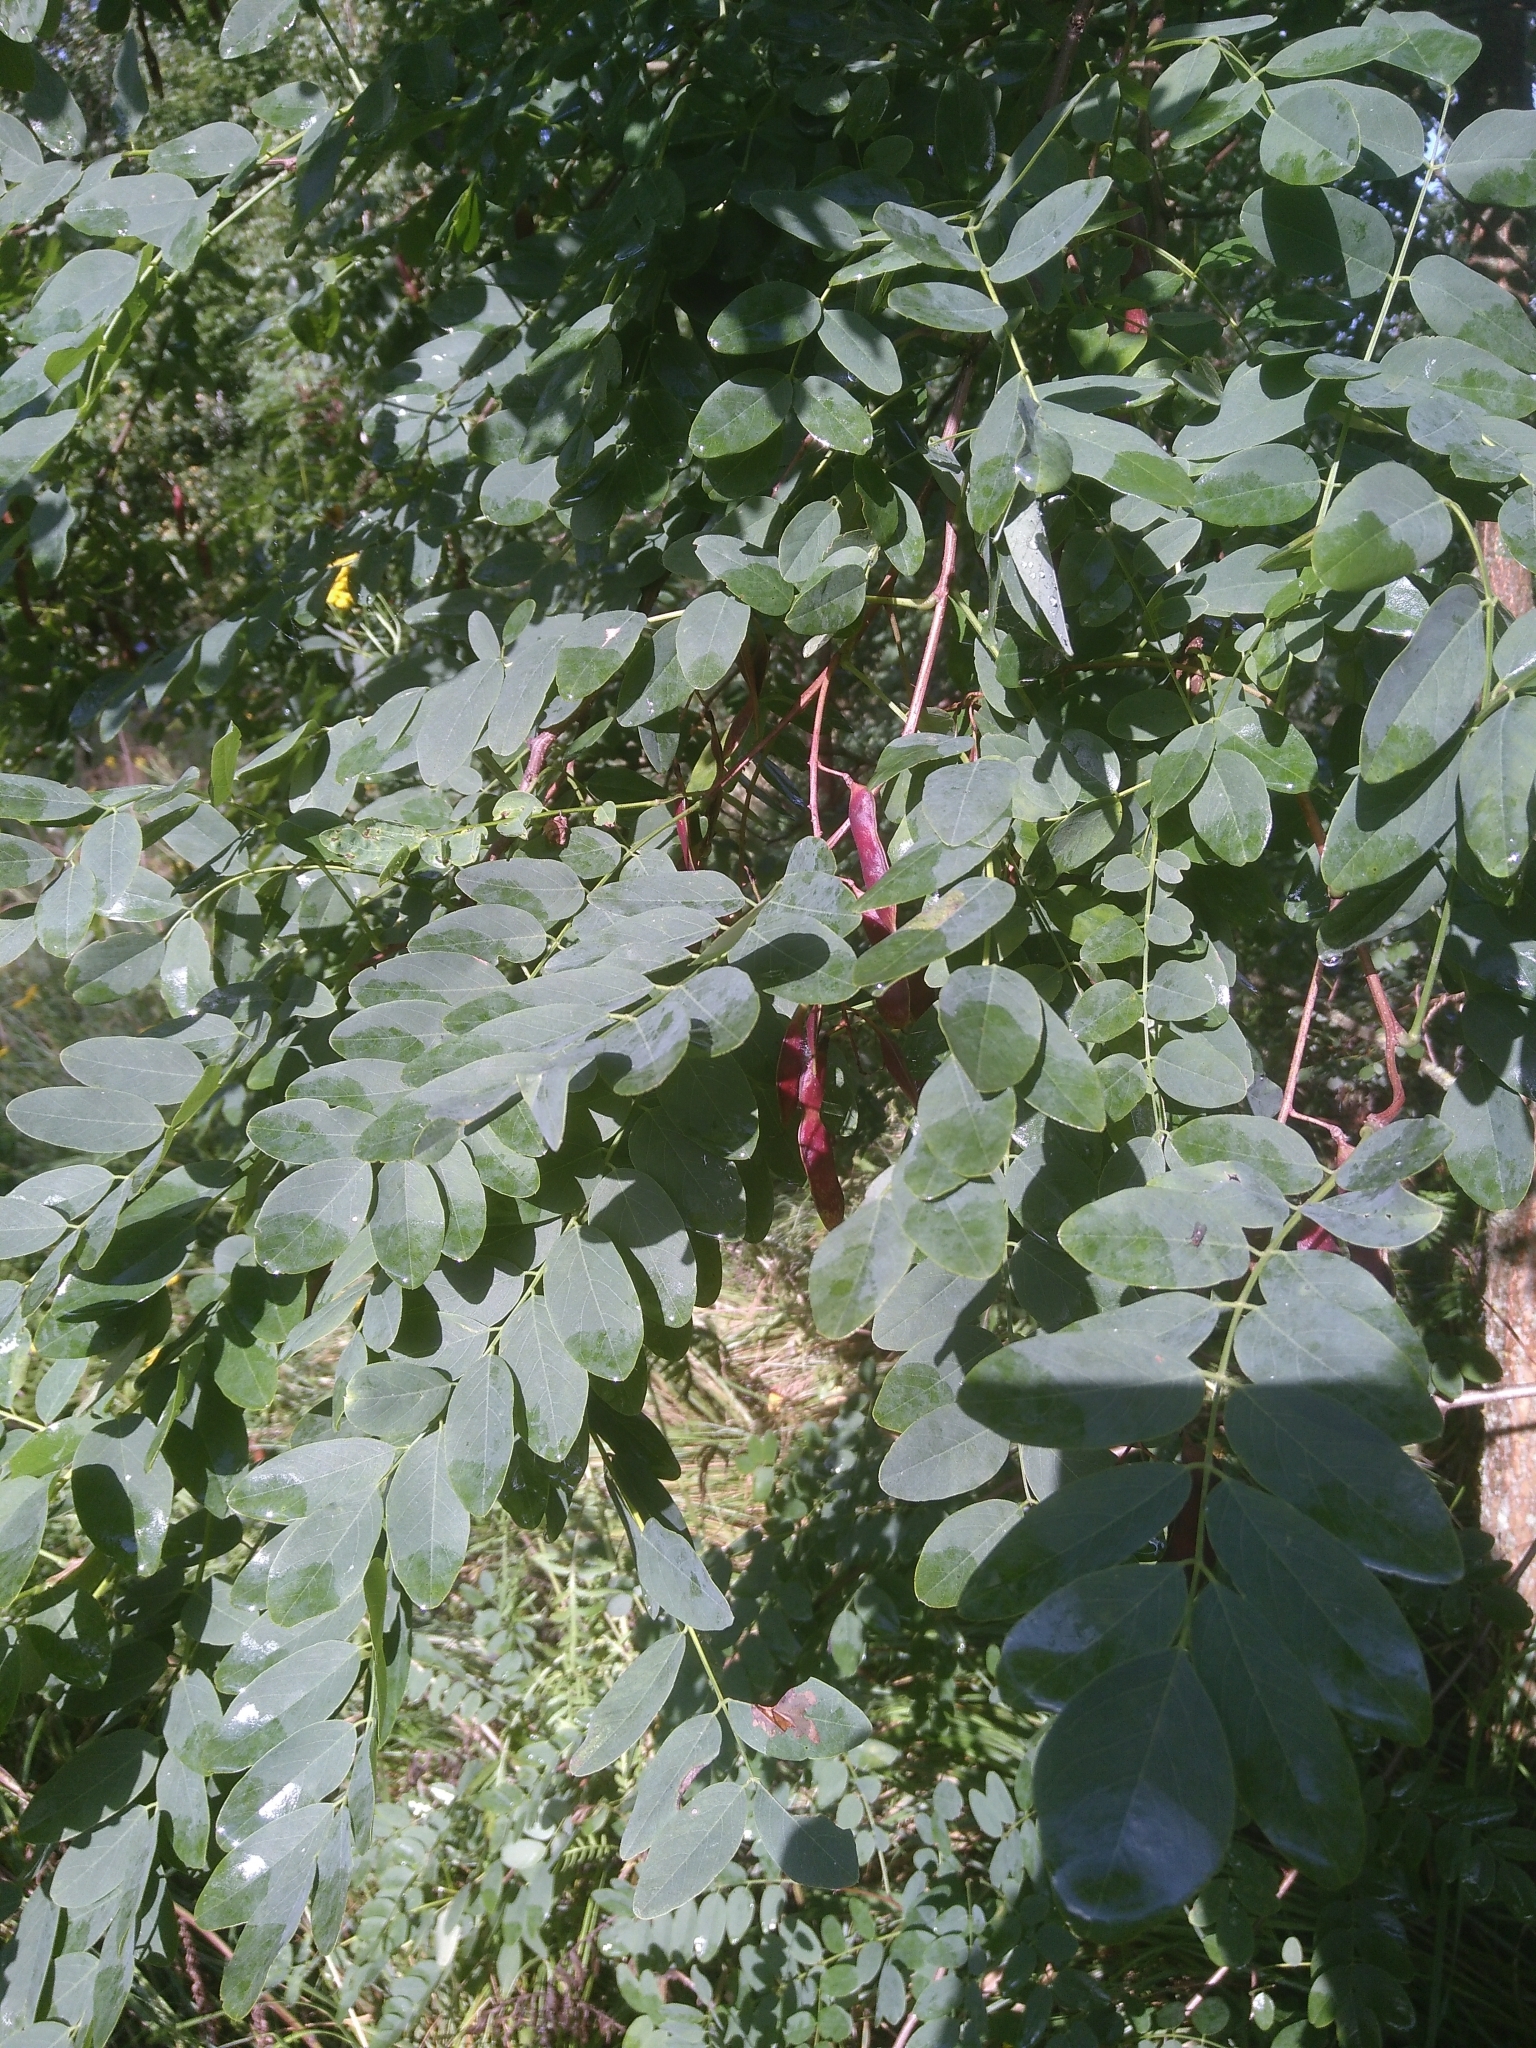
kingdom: Plantae
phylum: Tracheophyta
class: Magnoliopsida
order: Fabales
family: Fabaceae
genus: Robinia
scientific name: Robinia pseudoacacia
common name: Black locust
